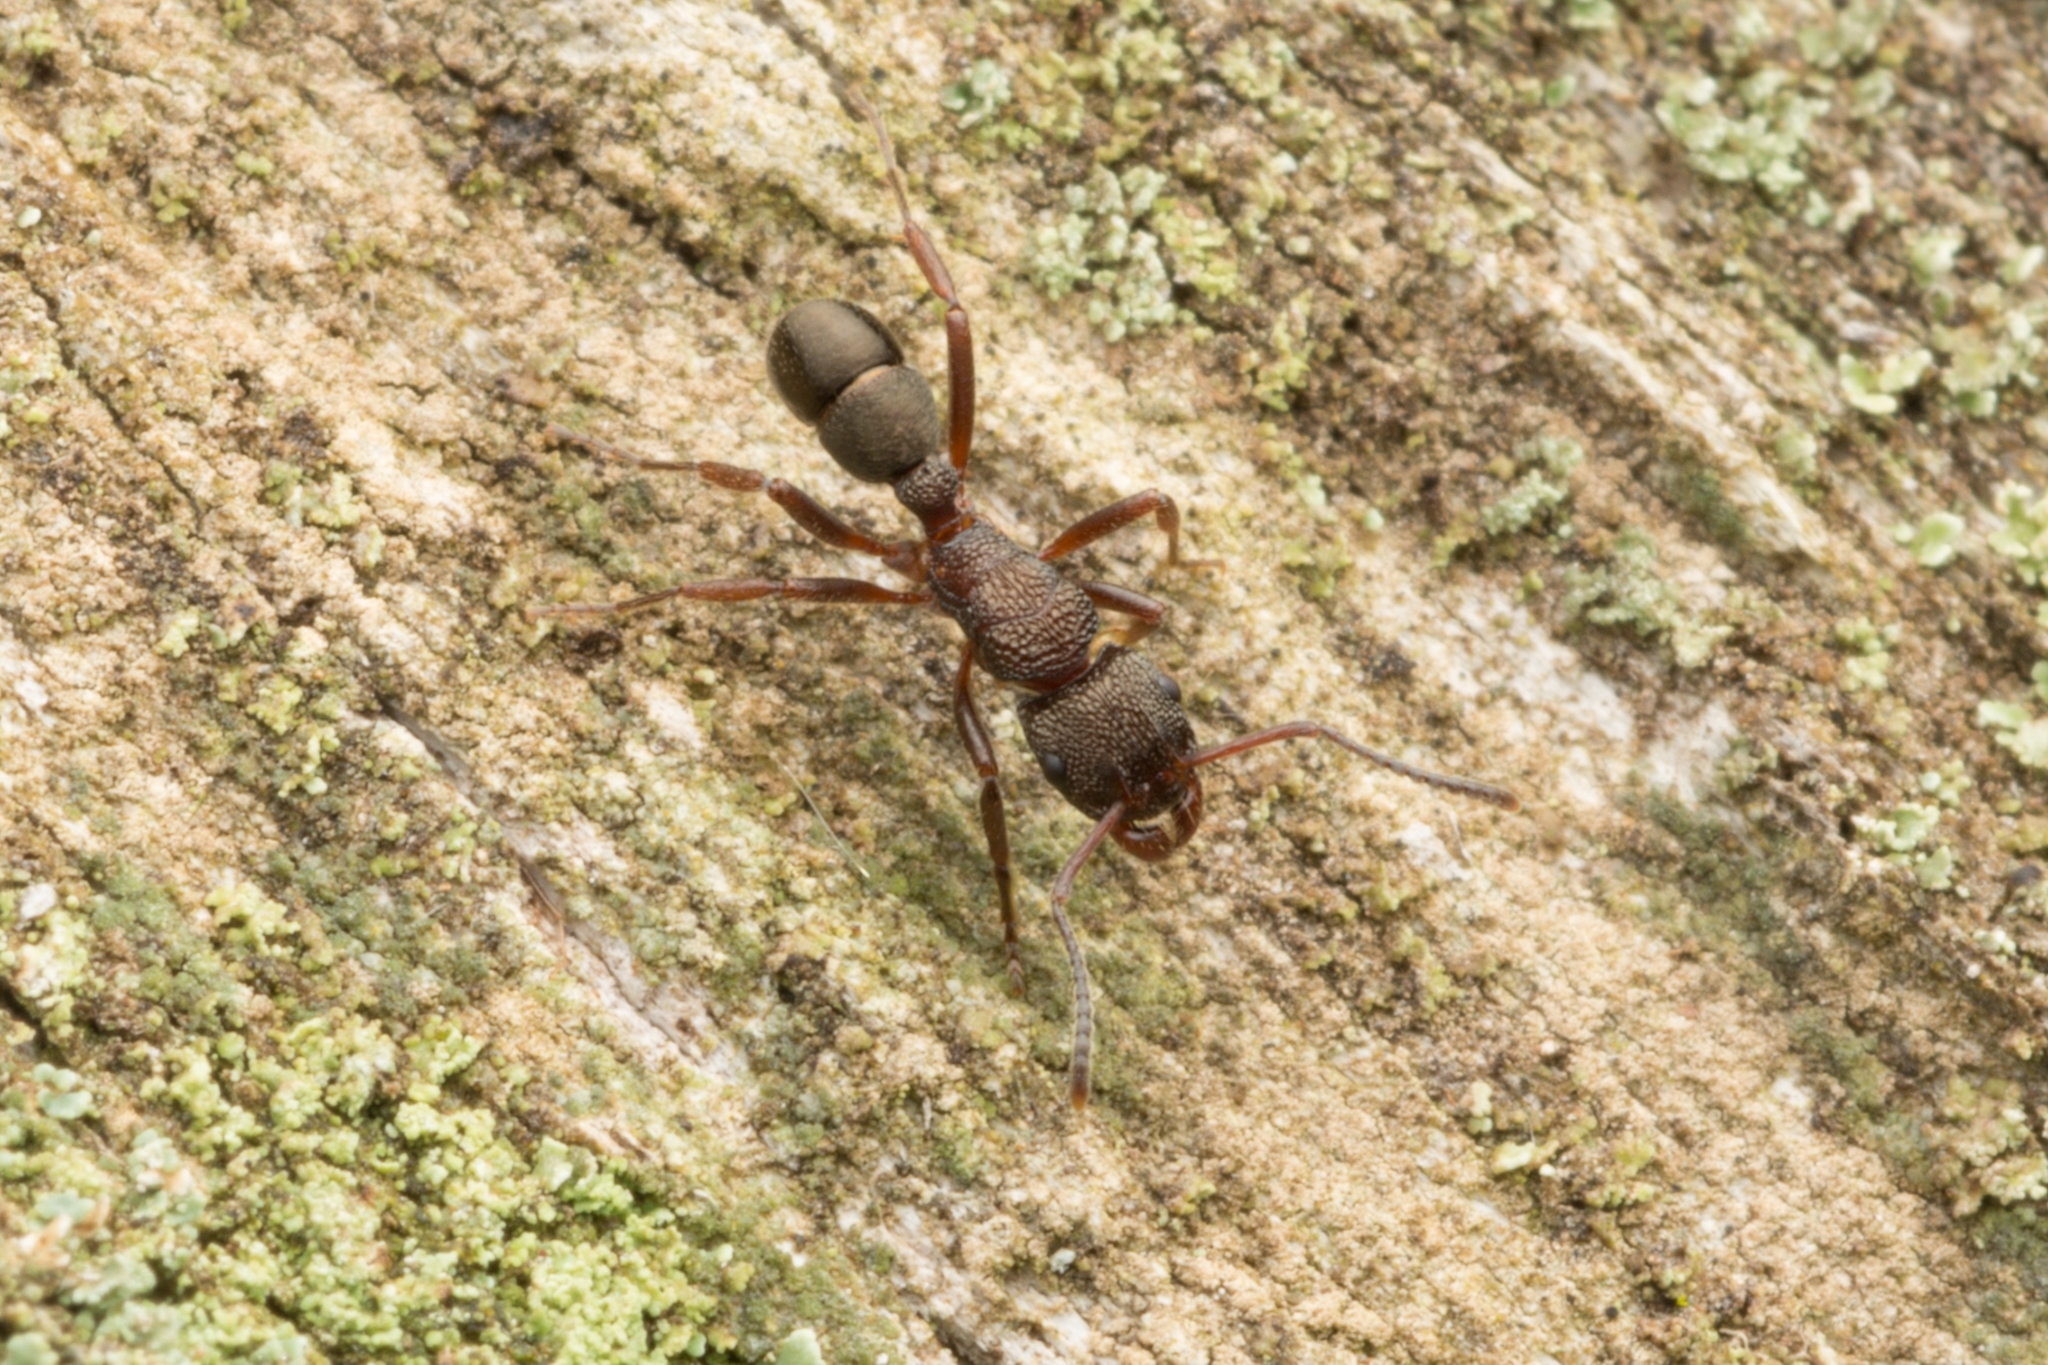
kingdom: Animalia
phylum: Arthropoda
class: Insecta
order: Hymenoptera
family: Formicidae
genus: Rhytidoponera
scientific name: Rhytidoponera tasmaniensis
